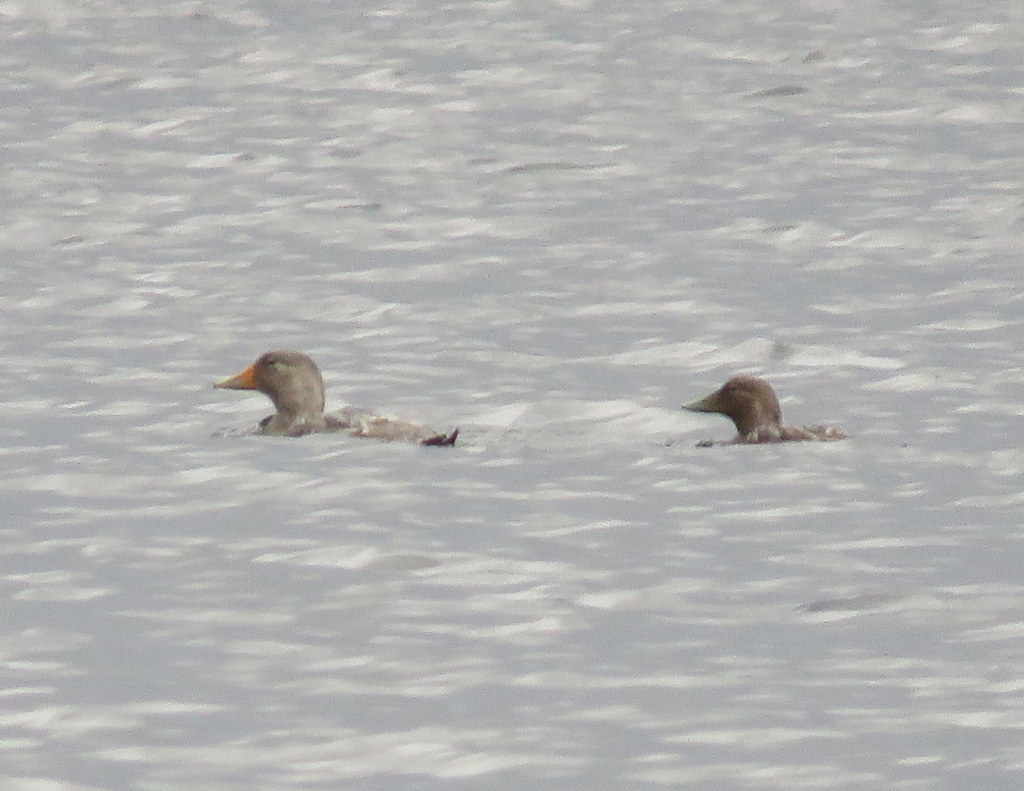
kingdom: Animalia
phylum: Chordata
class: Aves
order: Anseriformes
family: Anatidae
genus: Tachyeres
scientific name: Tachyeres patachonicus
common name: Flying steamer duck
